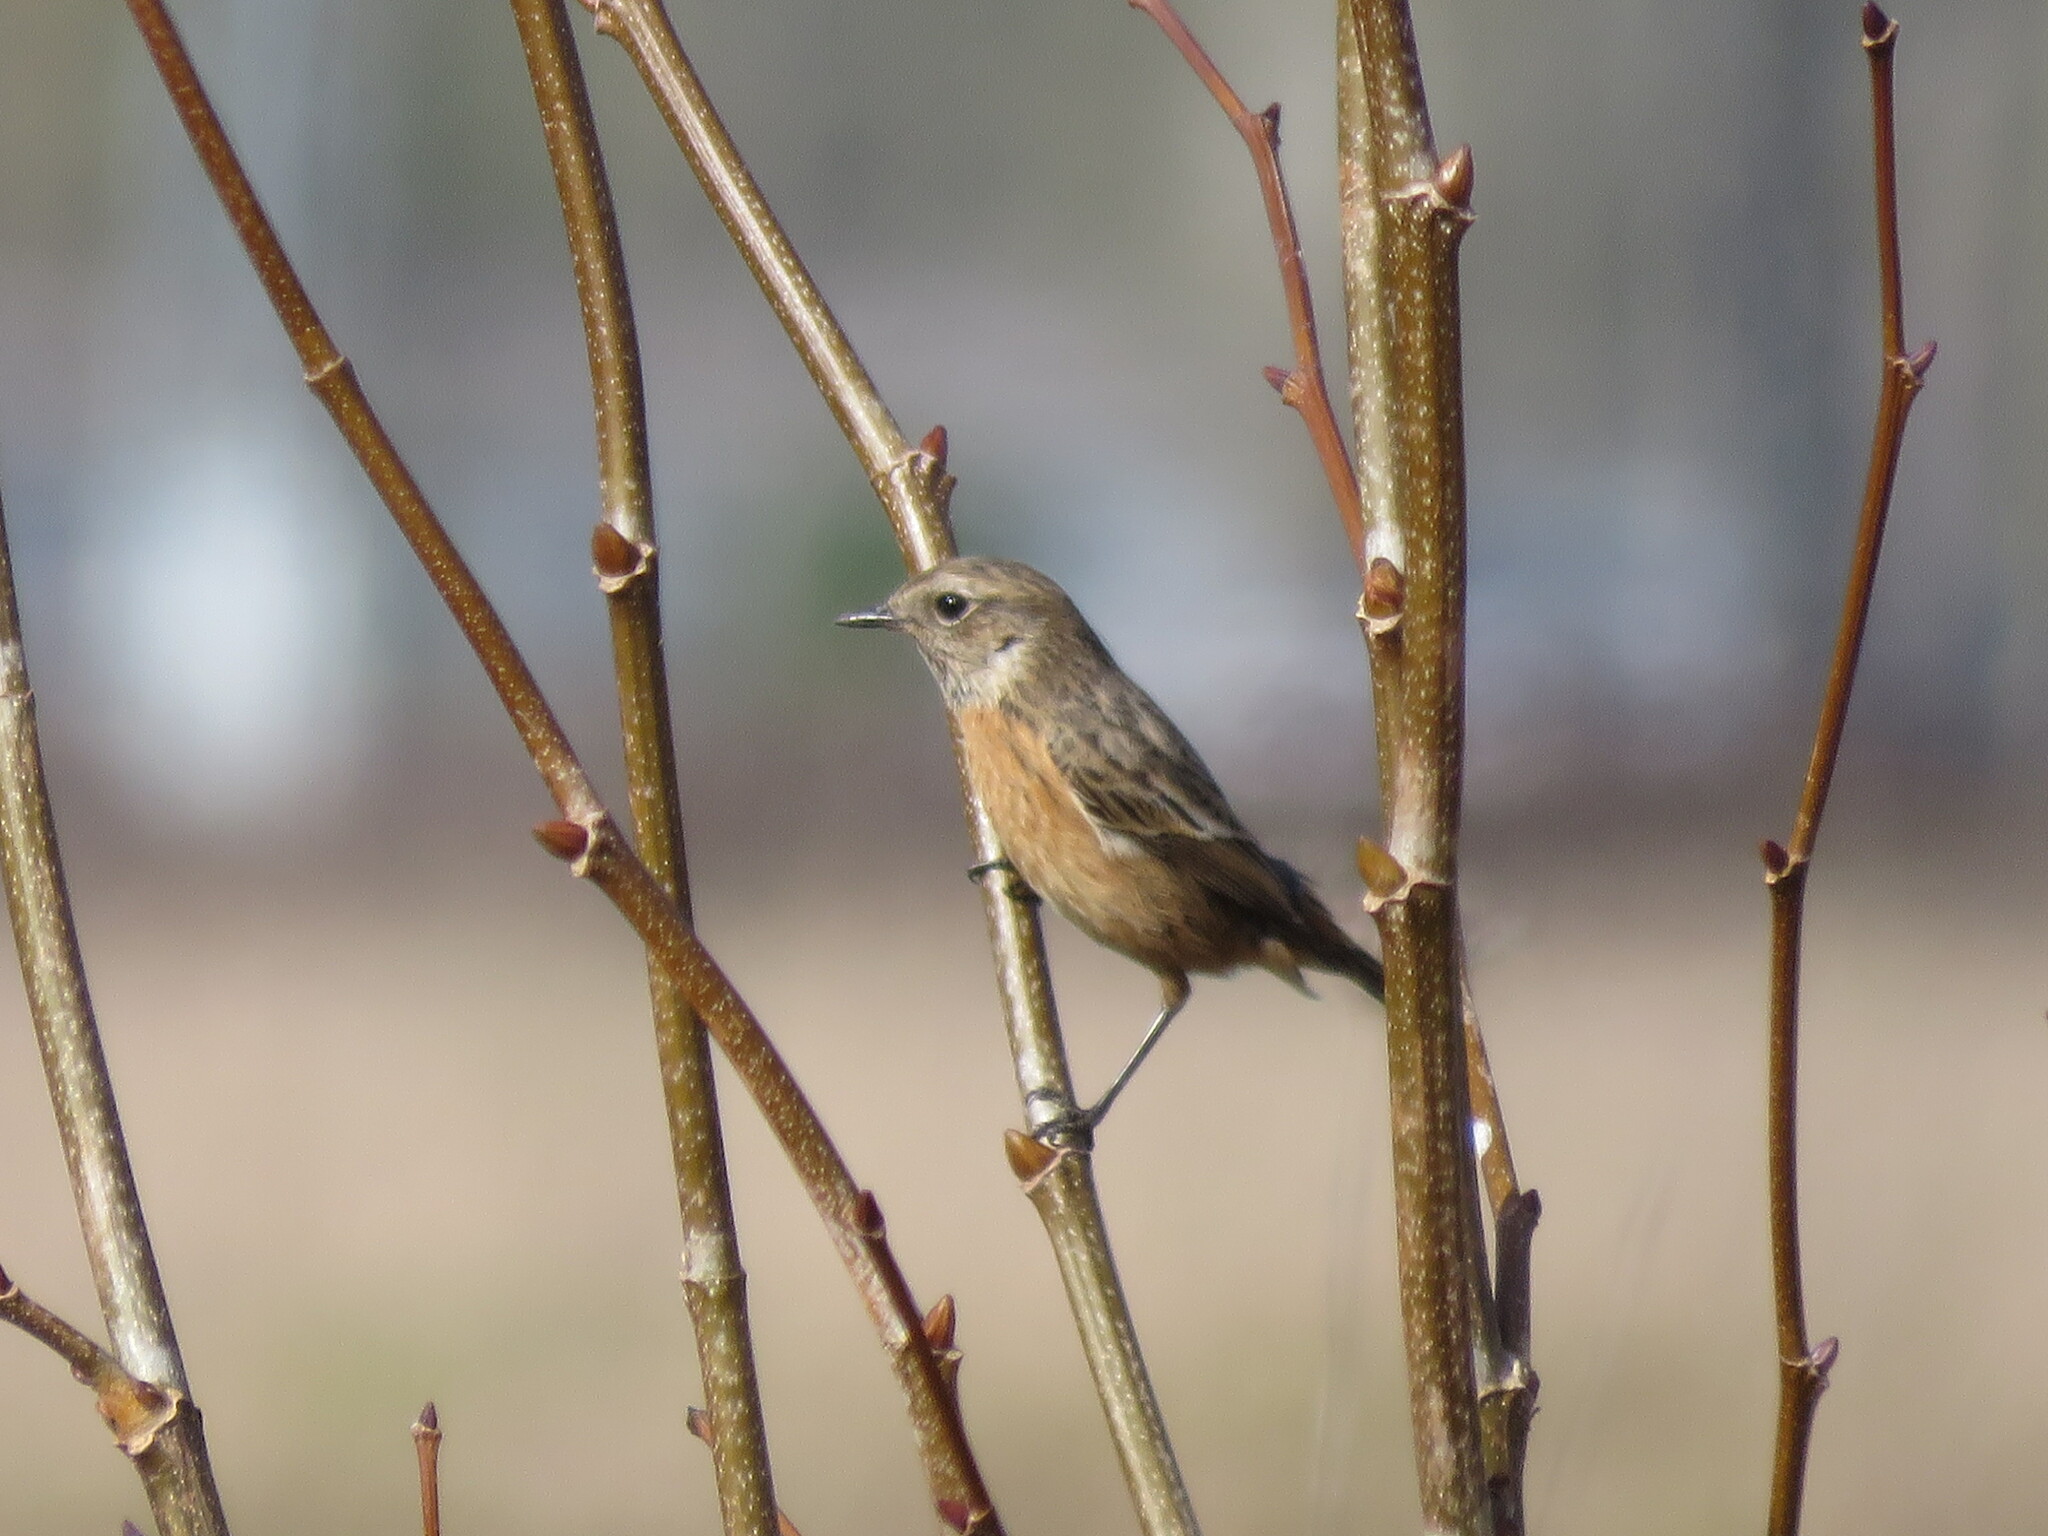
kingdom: Animalia
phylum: Chordata
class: Aves
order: Passeriformes
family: Muscicapidae
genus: Saxicola
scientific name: Saxicola rubicola
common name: European stonechat
